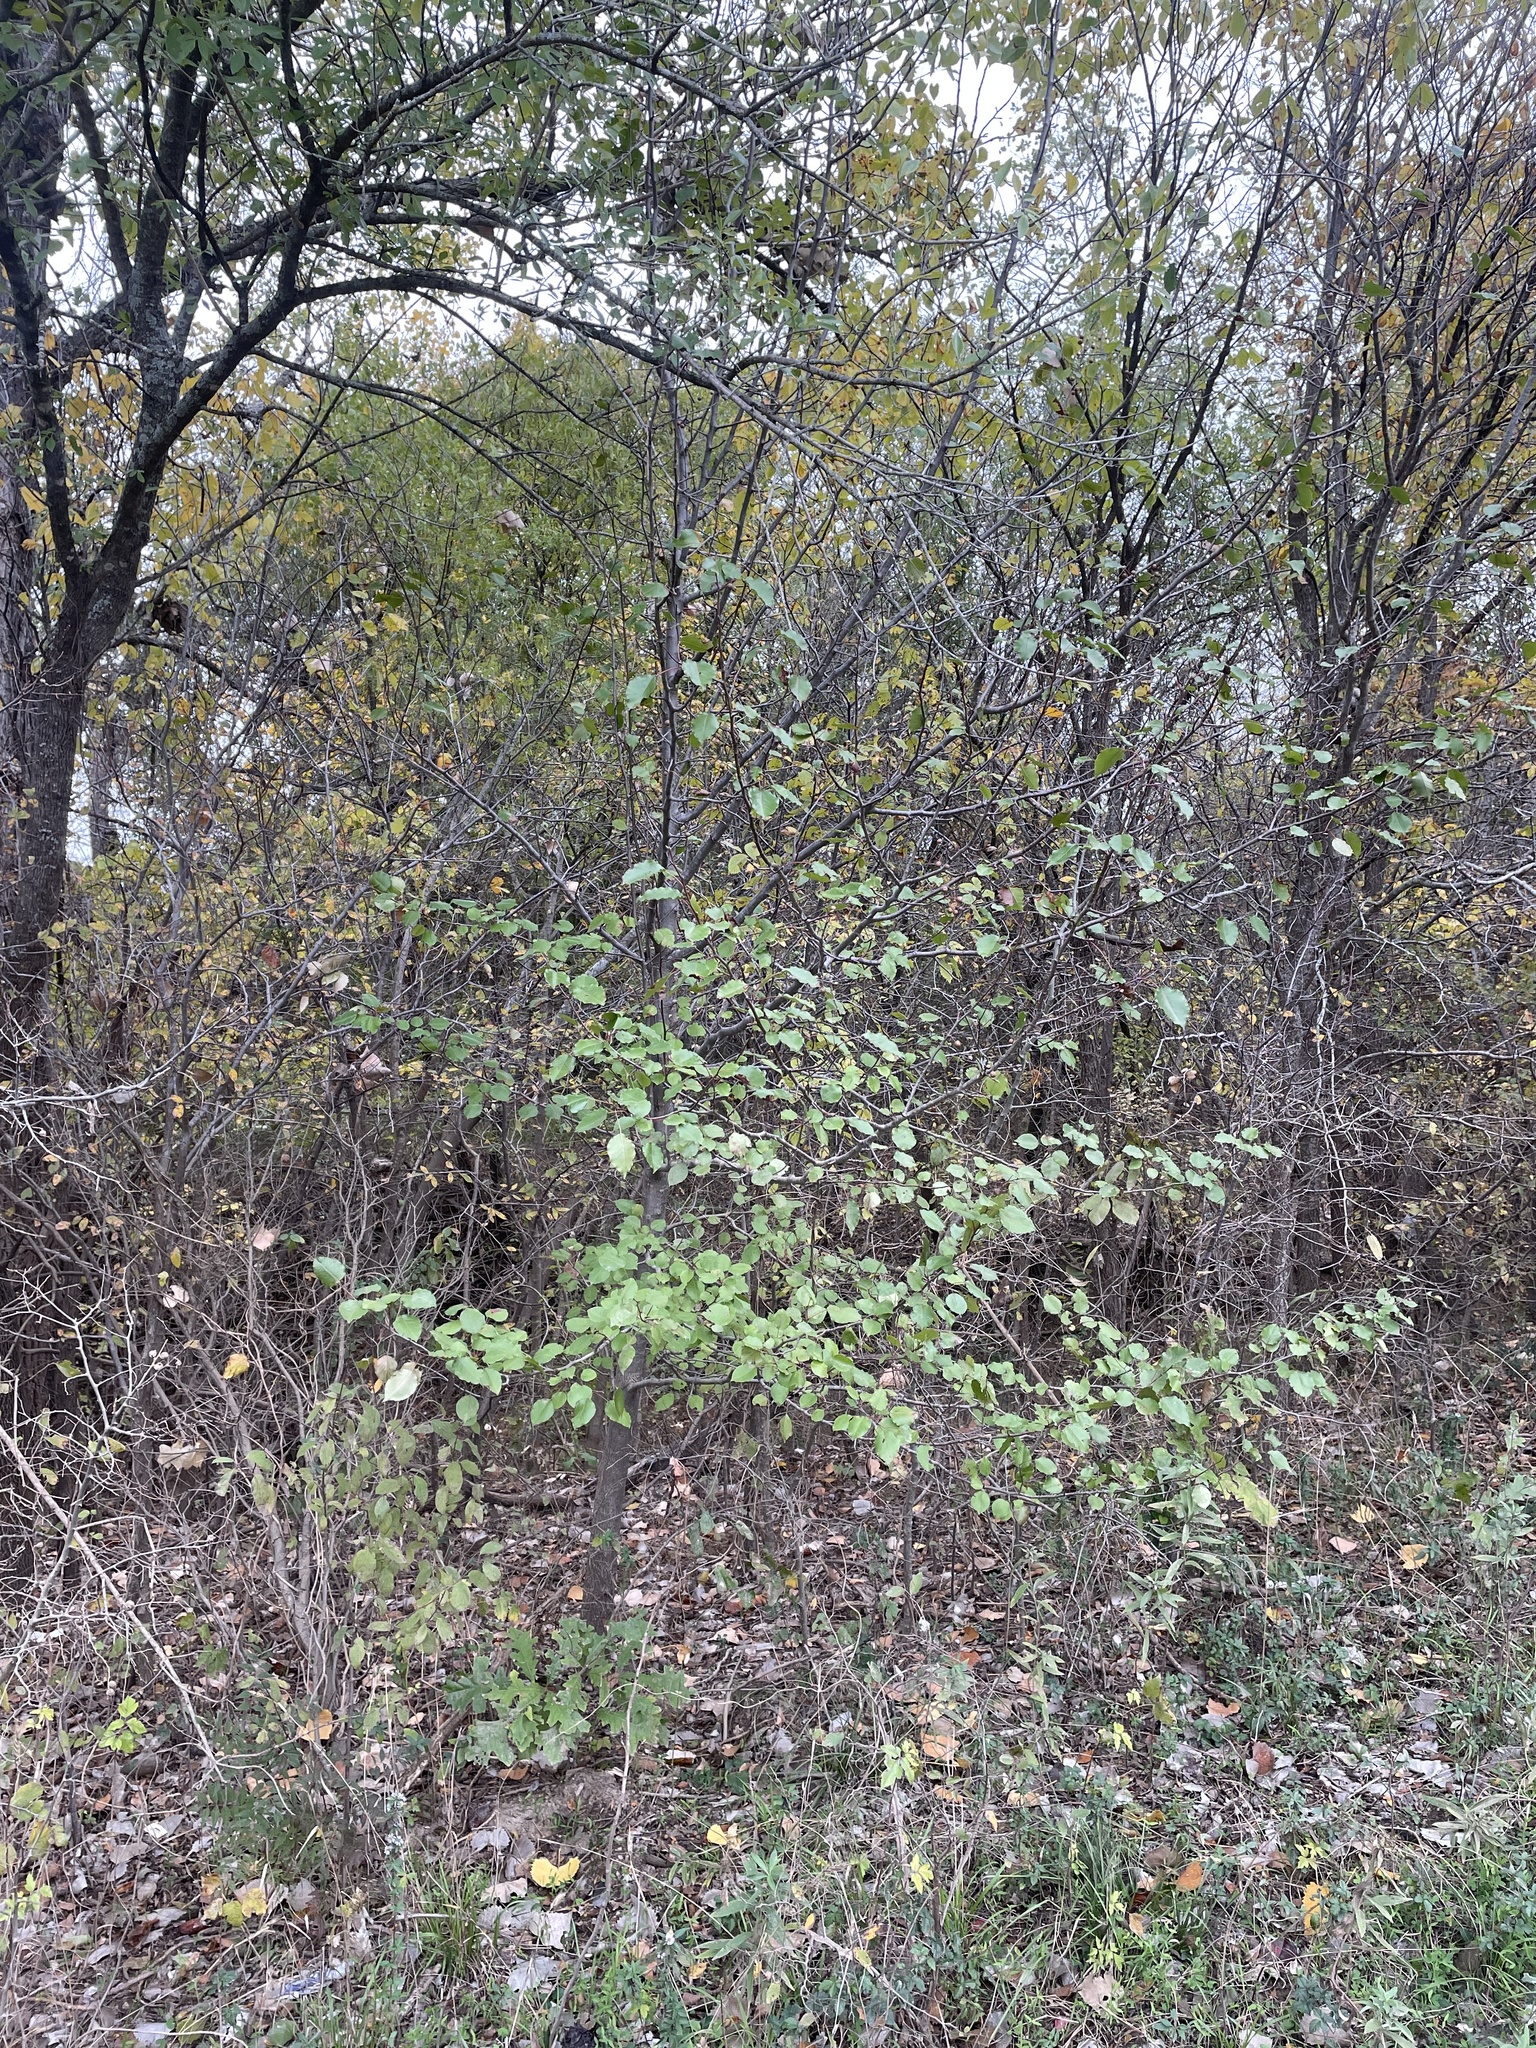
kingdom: Plantae
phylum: Tracheophyta
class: Magnoliopsida
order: Rosales
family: Rosaceae
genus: Pyrus
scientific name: Pyrus calleryana
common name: Callery pear
